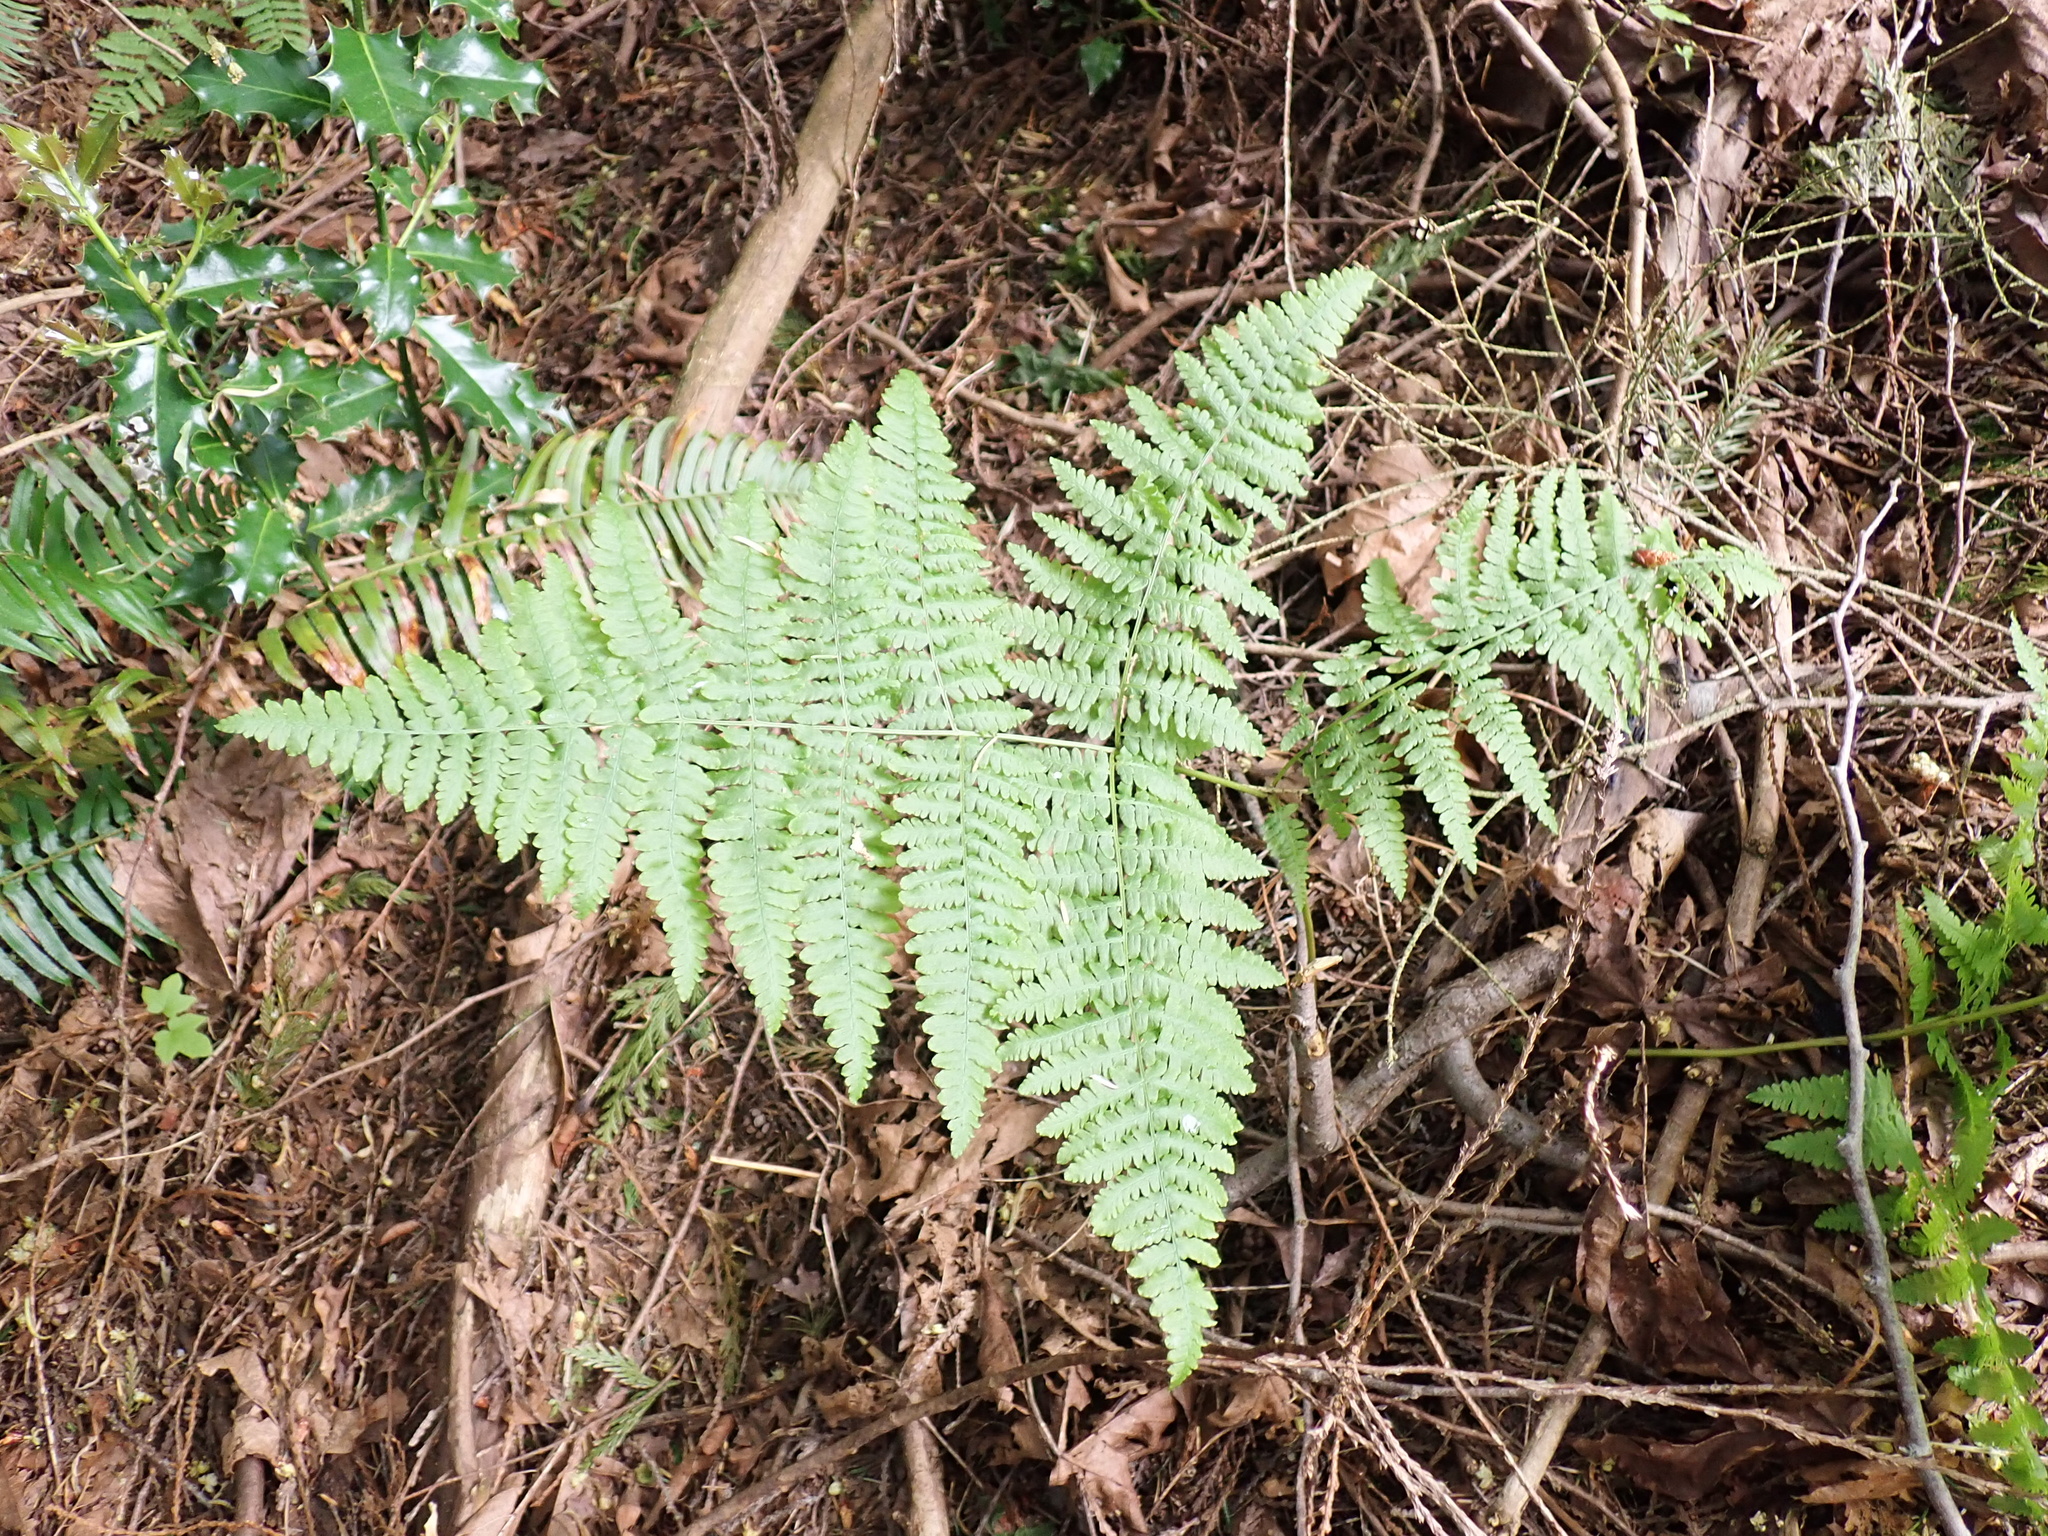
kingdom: Plantae
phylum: Tracheophyta
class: Polypodiopsida
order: Polypodiales
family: Dennstaedtiaceae
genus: Pteridium
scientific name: Pteridium aquilinum
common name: Bracken
